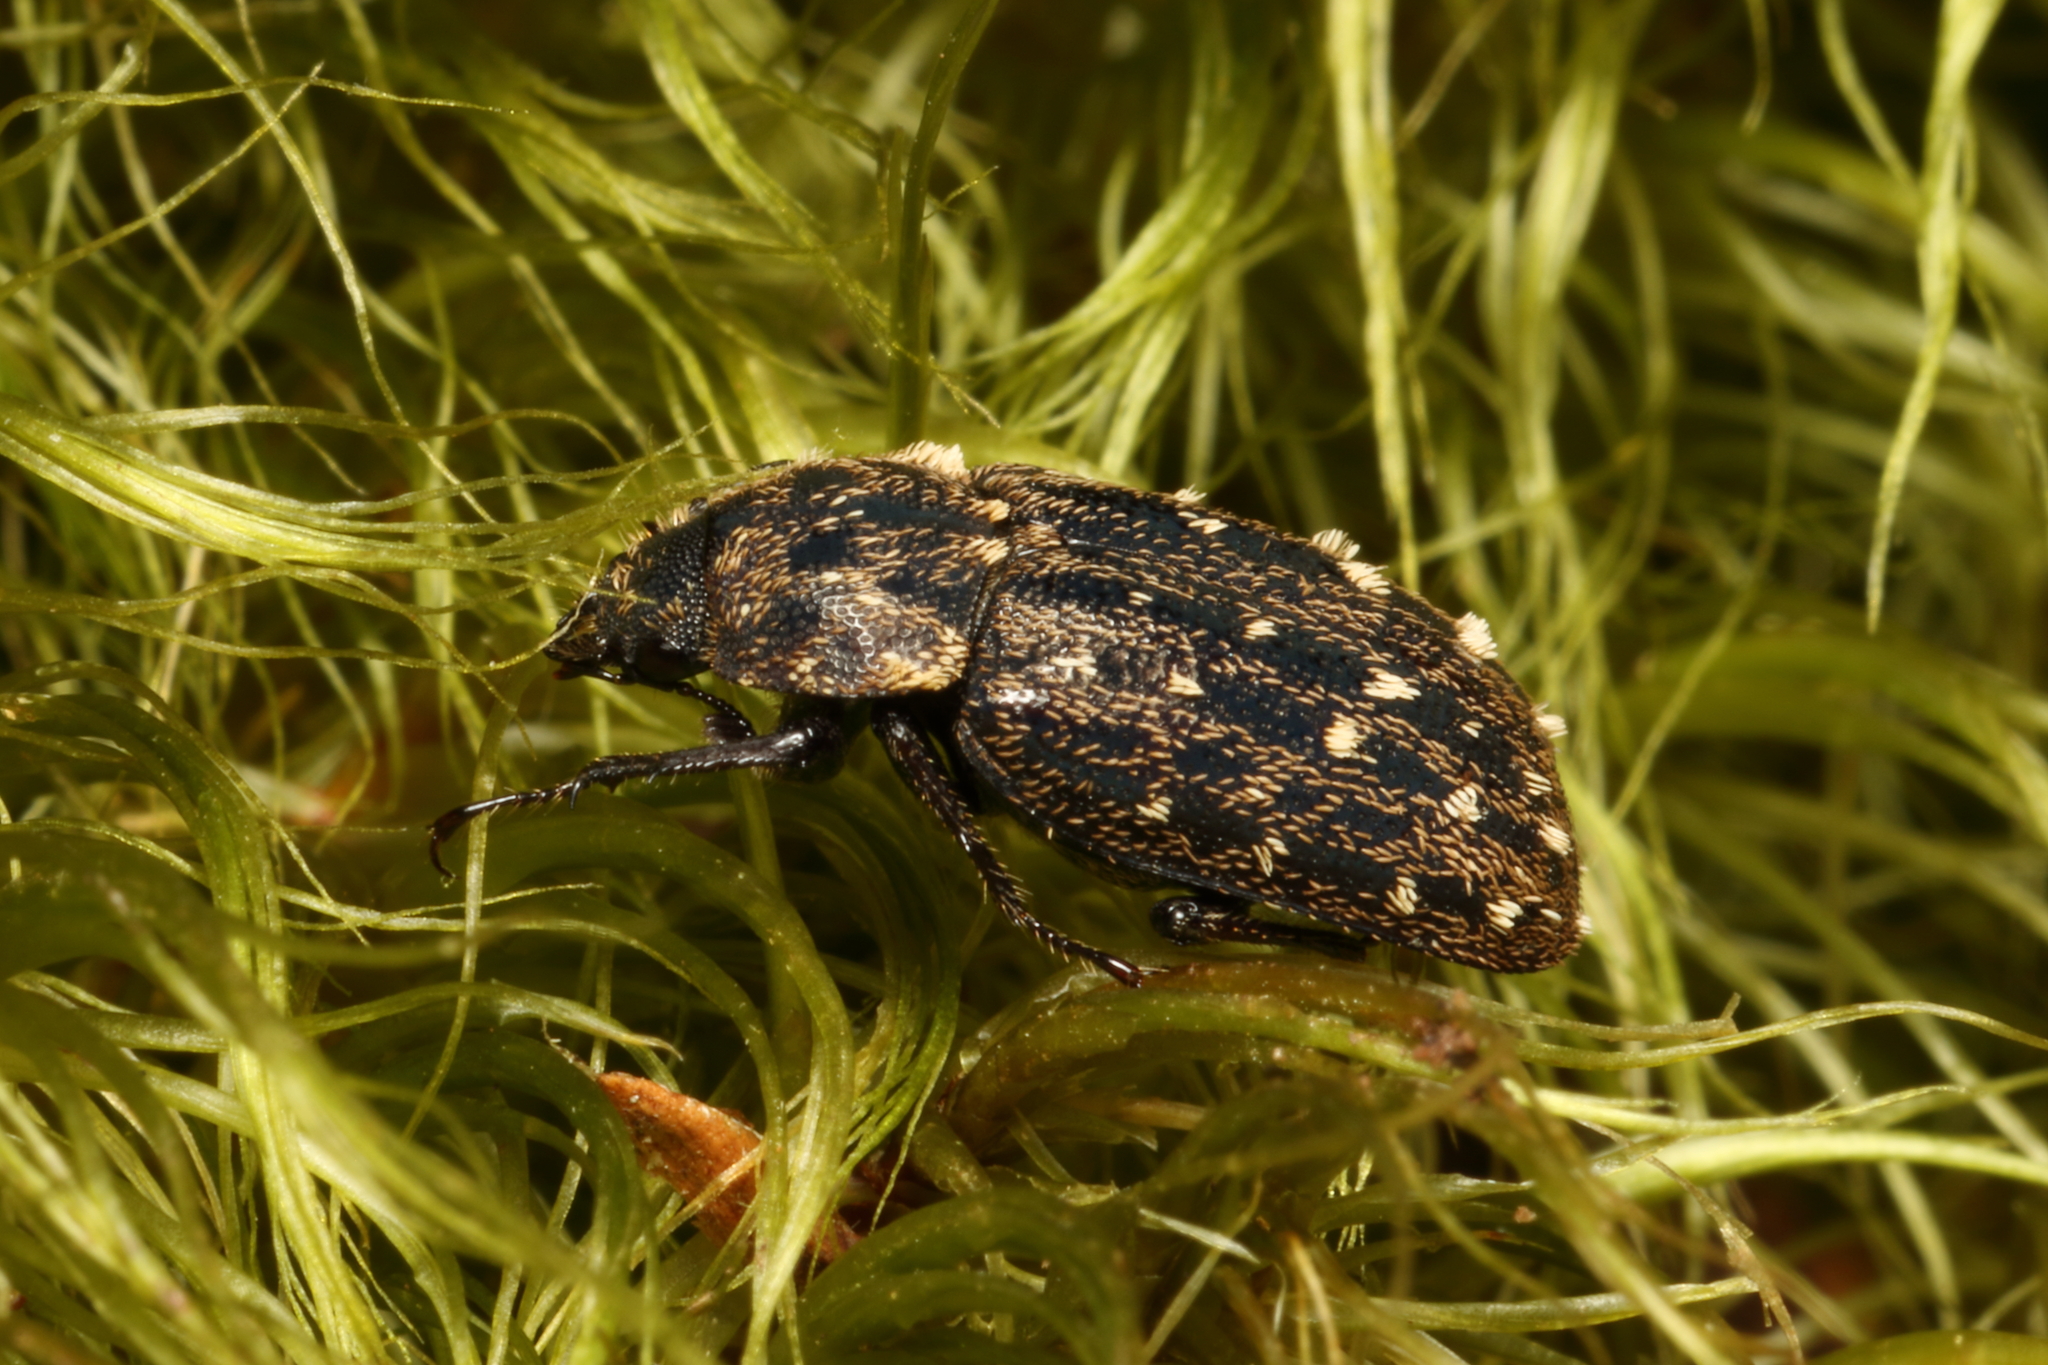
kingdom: Animalia
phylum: Arthropoda
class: Insecta
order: Coleoptera
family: Lucanidae
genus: Mitophyllus
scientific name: Mitophyllus alboguttatus
